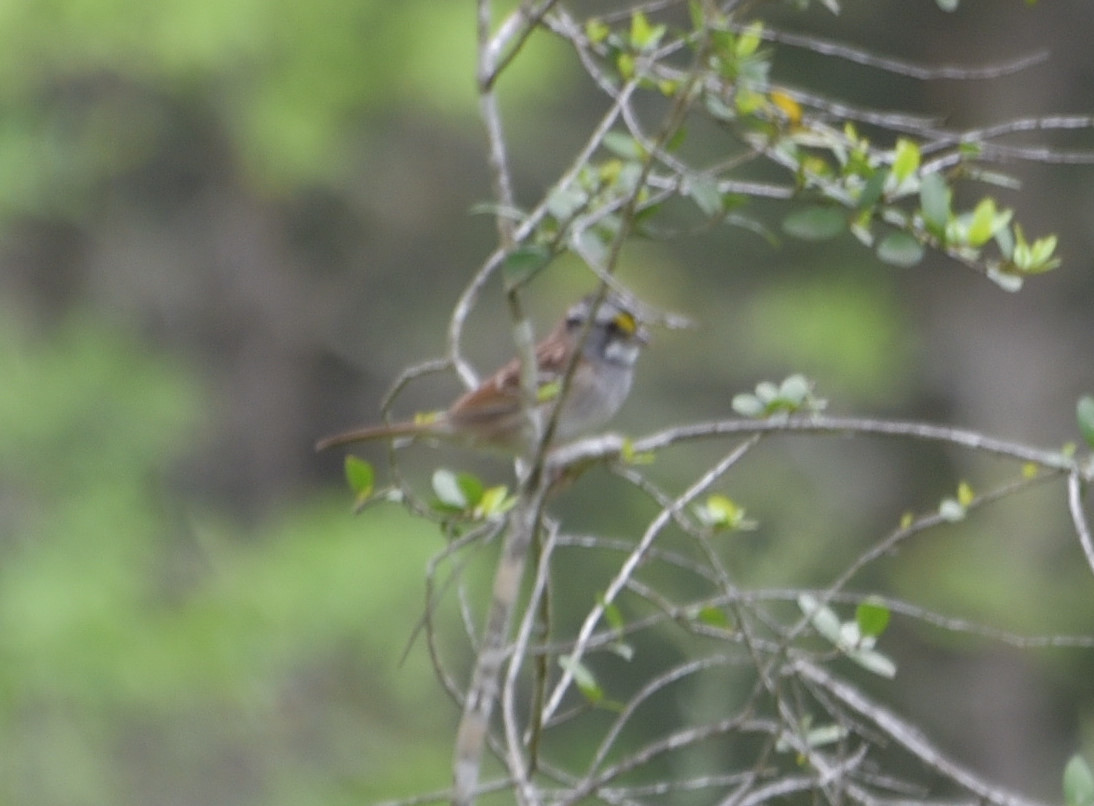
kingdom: Animalia
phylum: Chordata
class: Aves
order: Passeriformes
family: Passerellidae
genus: Zonotrichia
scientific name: Zonotrichia albicollis
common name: White-throated sparrow
